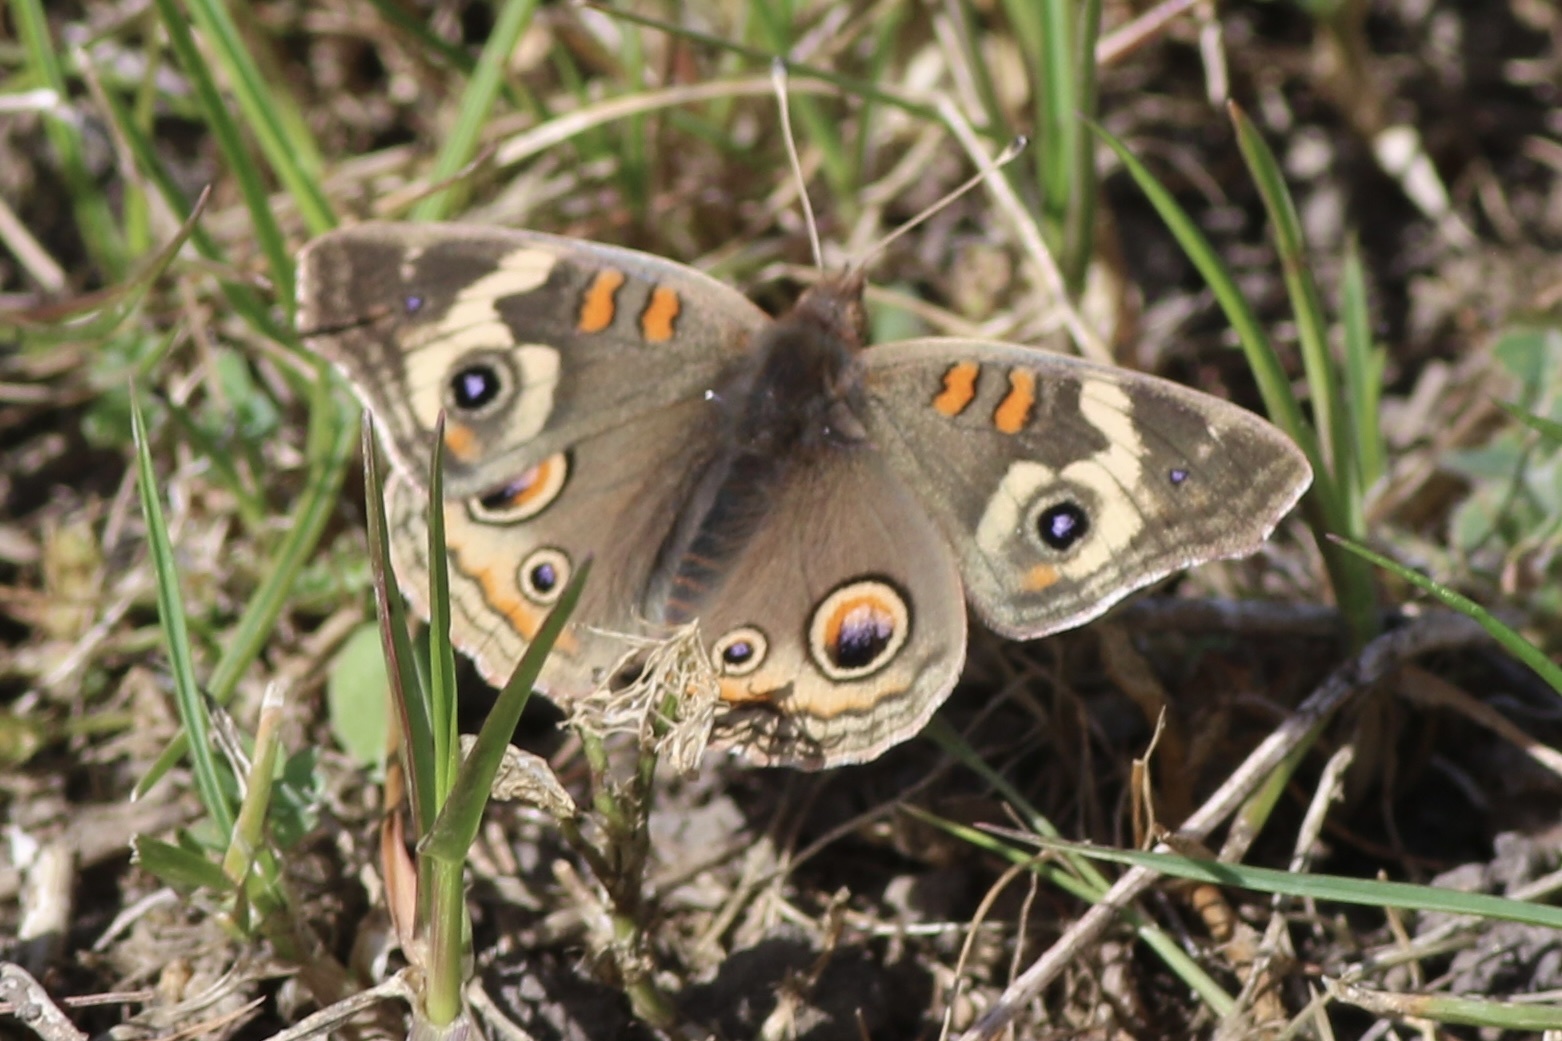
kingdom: Animalia
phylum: Arthropoda
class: Insecta
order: Lepidoptera
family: Nymphalidae
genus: Junonia
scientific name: Junonia grisea
